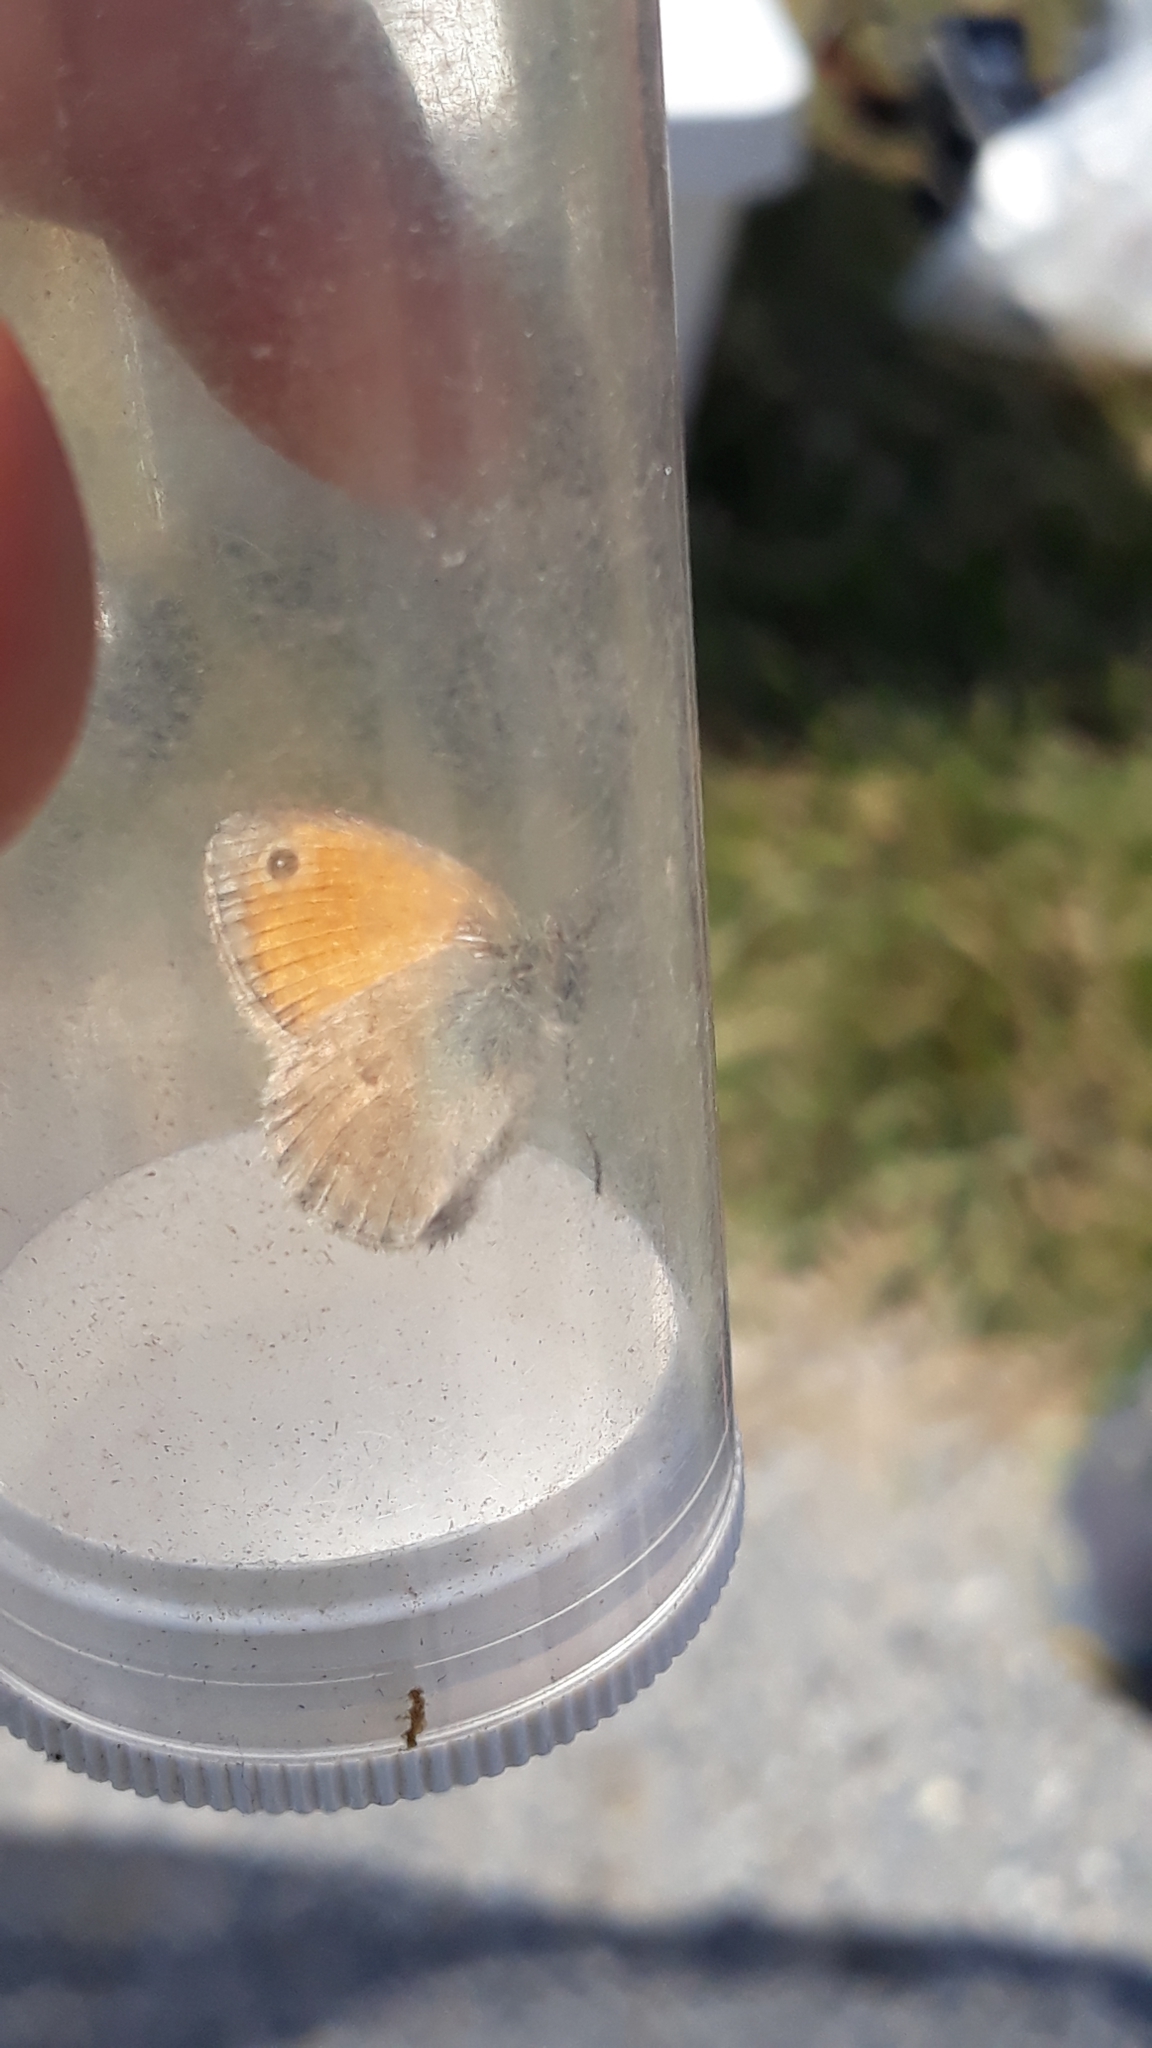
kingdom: Animalia
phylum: Arthropoda
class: Insecta
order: Lepidoptera
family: Nymphalidae
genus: Coenonympha
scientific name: Coenonympha pamphilus
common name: Small heath
